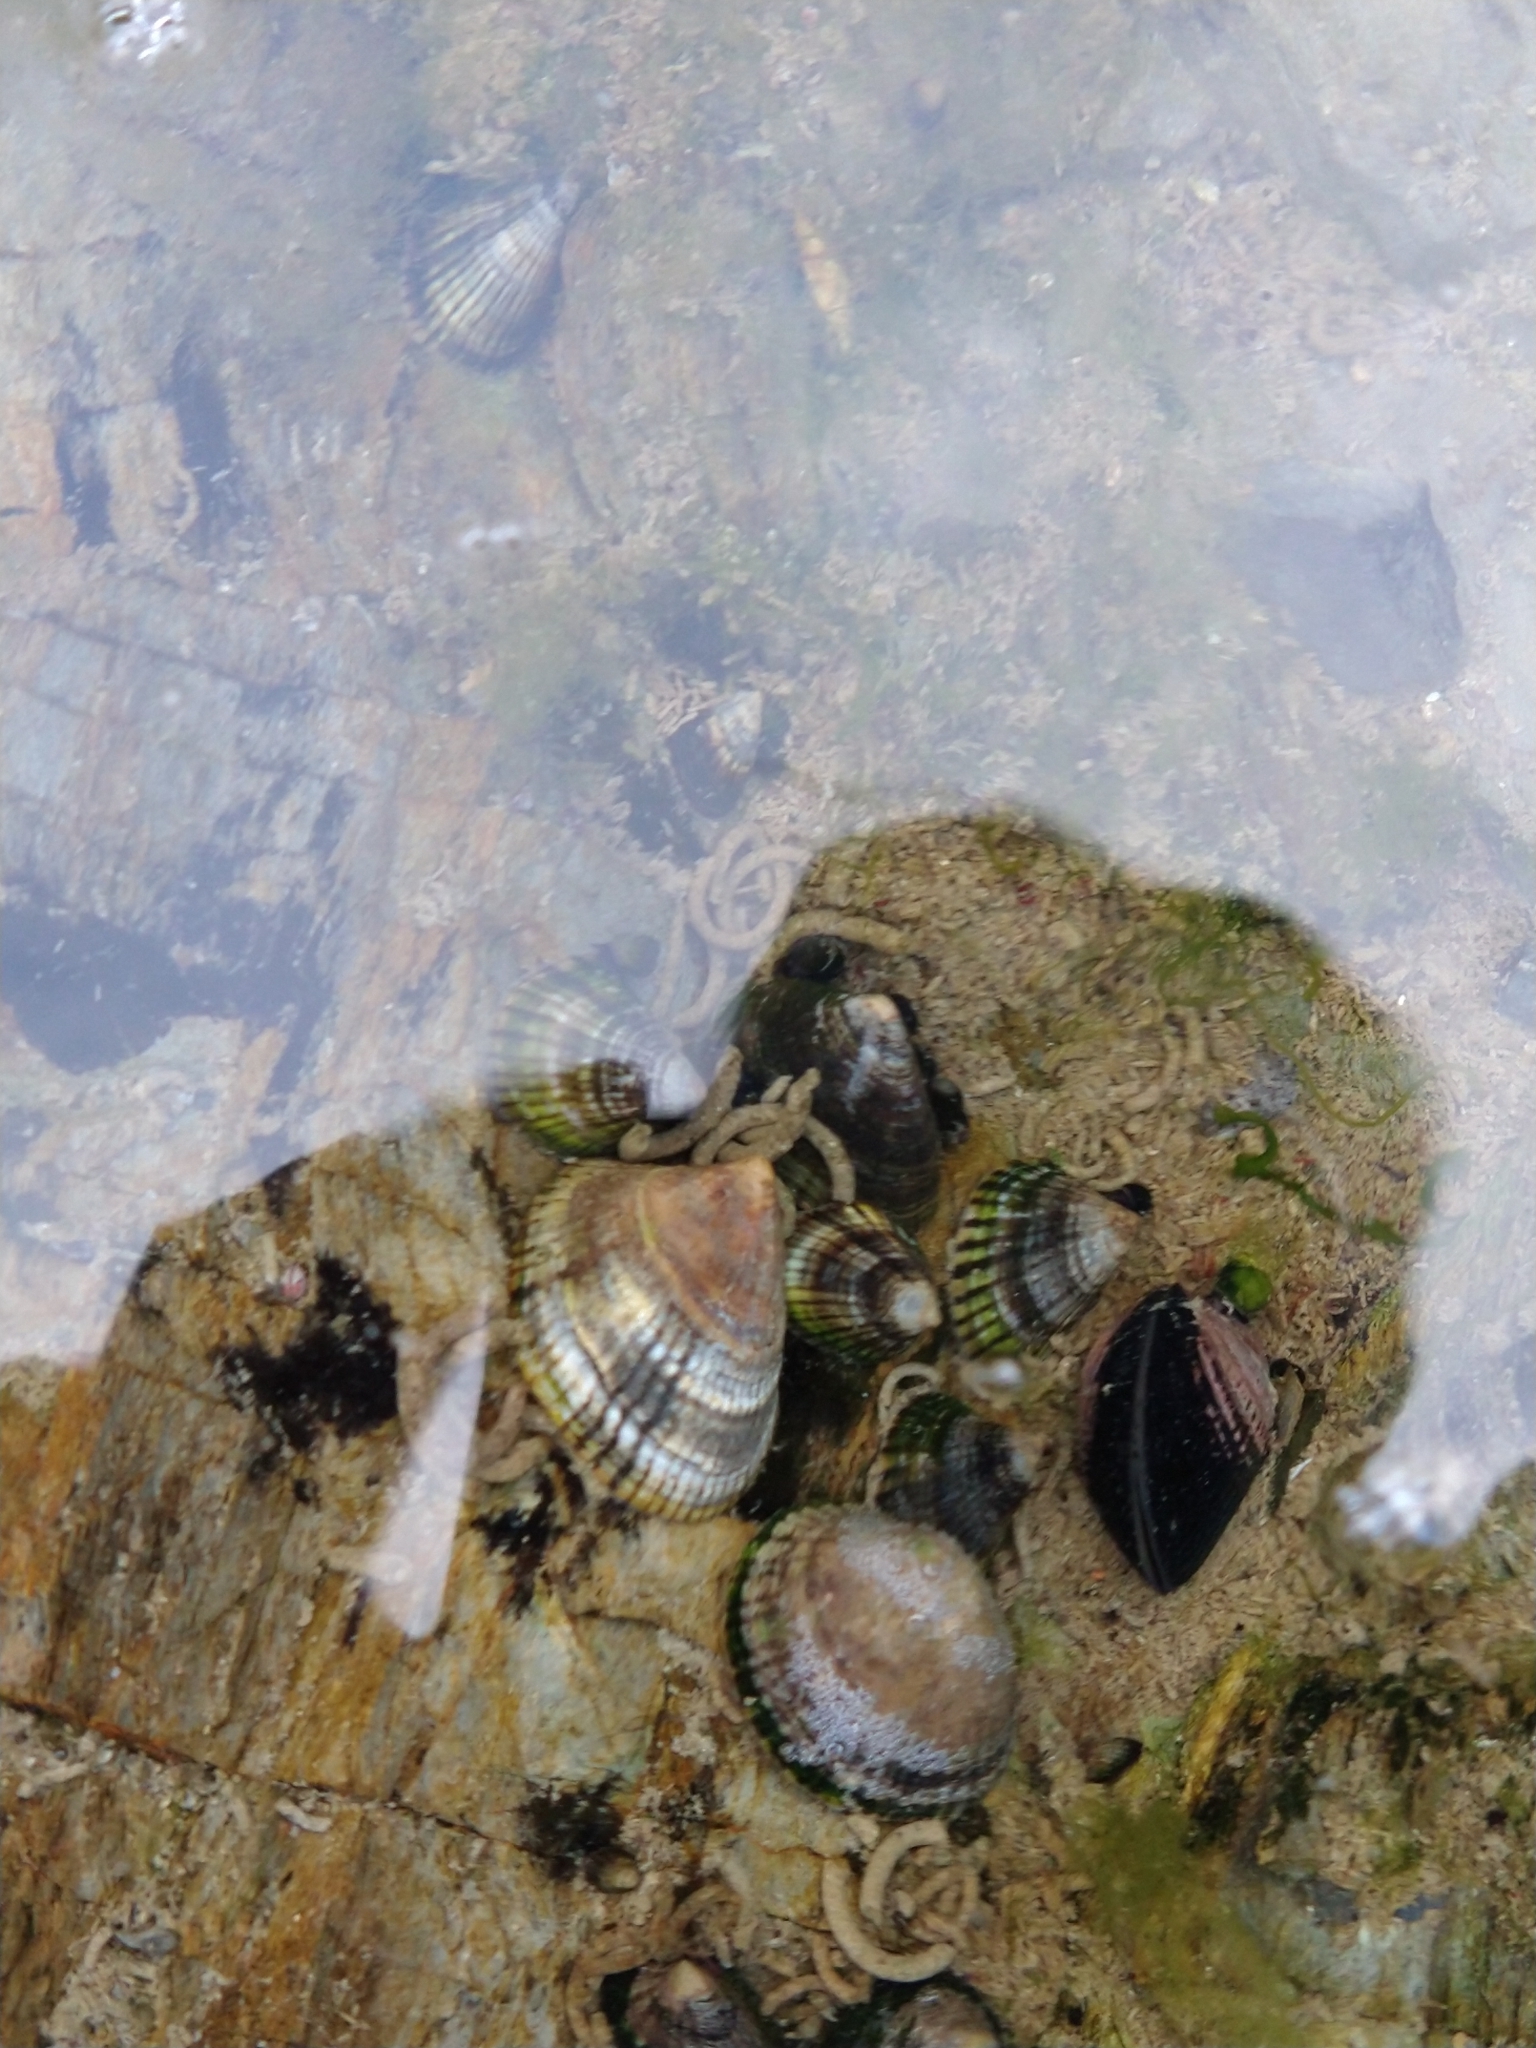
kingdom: Animalia
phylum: Mollusca
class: Gastropoda
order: Siphonariida
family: Siphonariidae
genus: Siphonaria
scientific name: Siphonaria lessonii
